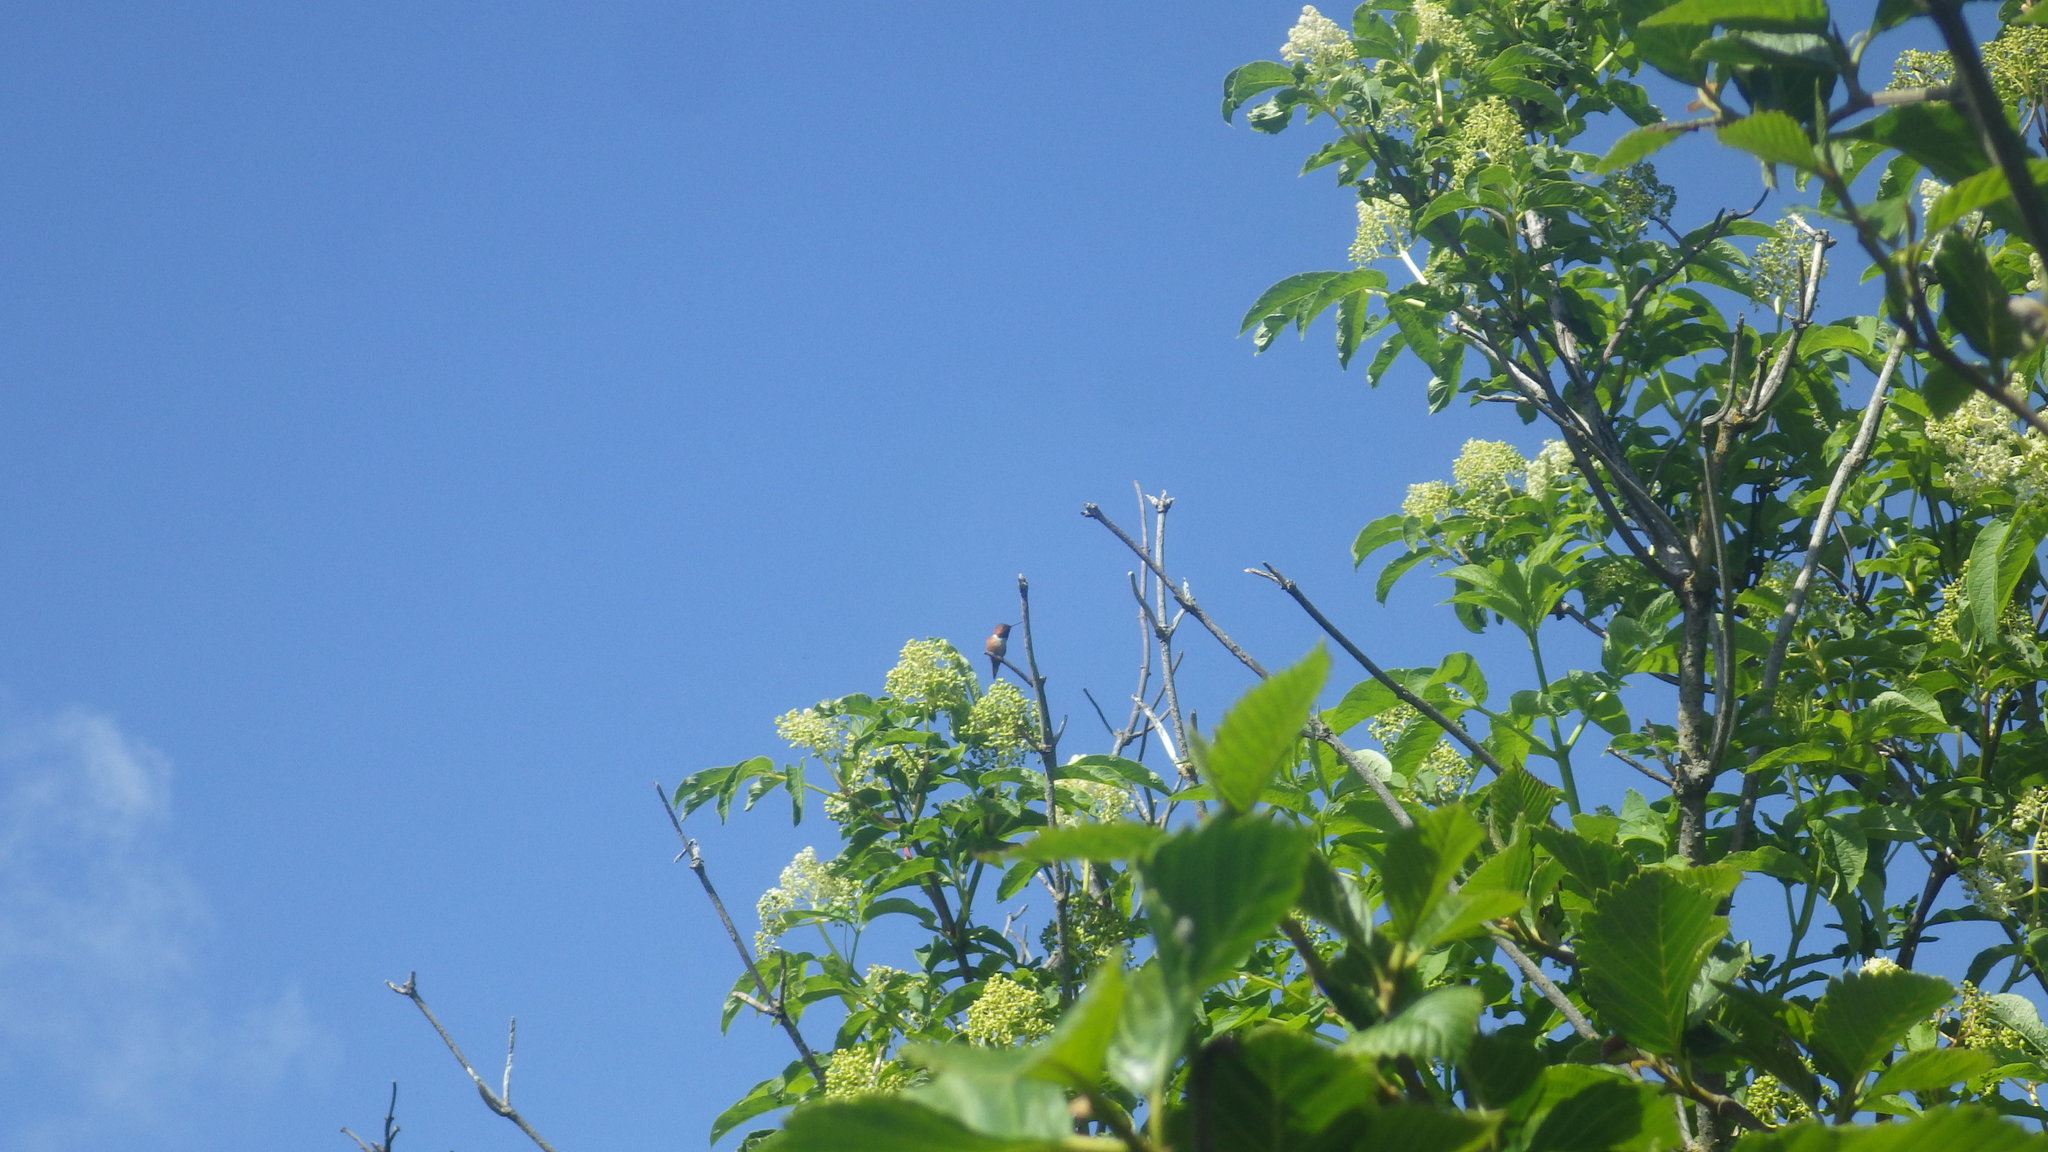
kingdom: Animalia
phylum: Chordata
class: Aves
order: Apodiformes
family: Trochilidae
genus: Selasphorus
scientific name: Selasphorus sasin
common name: Allen's hummingbird
